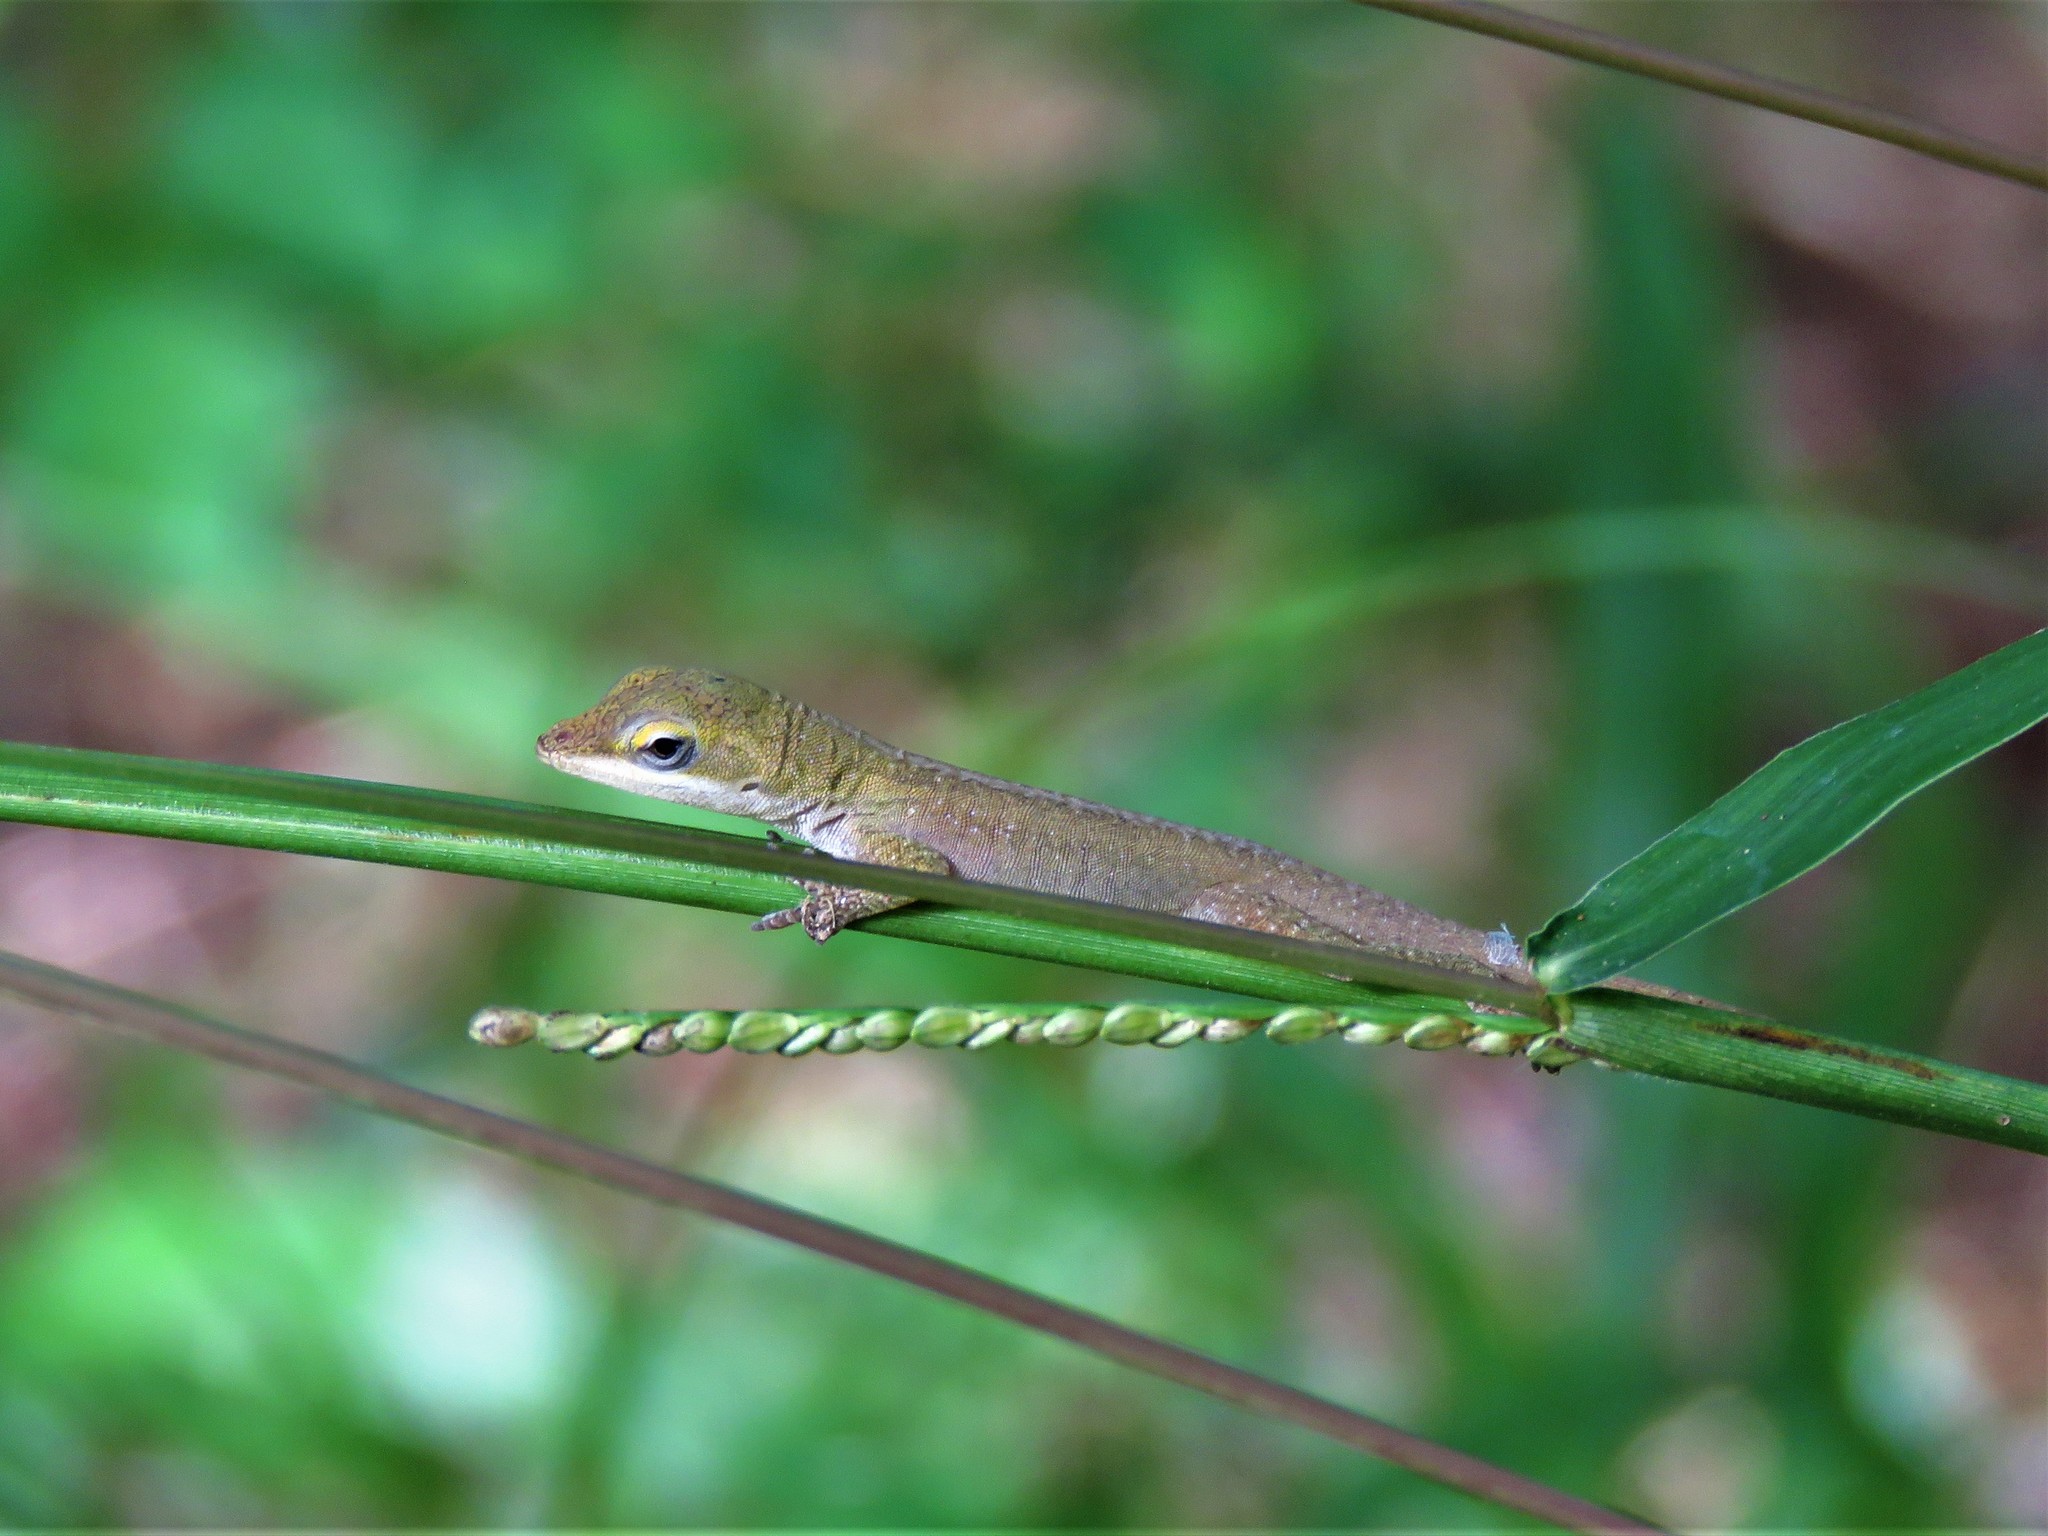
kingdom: Animalia
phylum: Chordata
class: Squamata
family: Dactyloidae
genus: Anolis
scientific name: Anolis carolinensis
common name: Green anole
